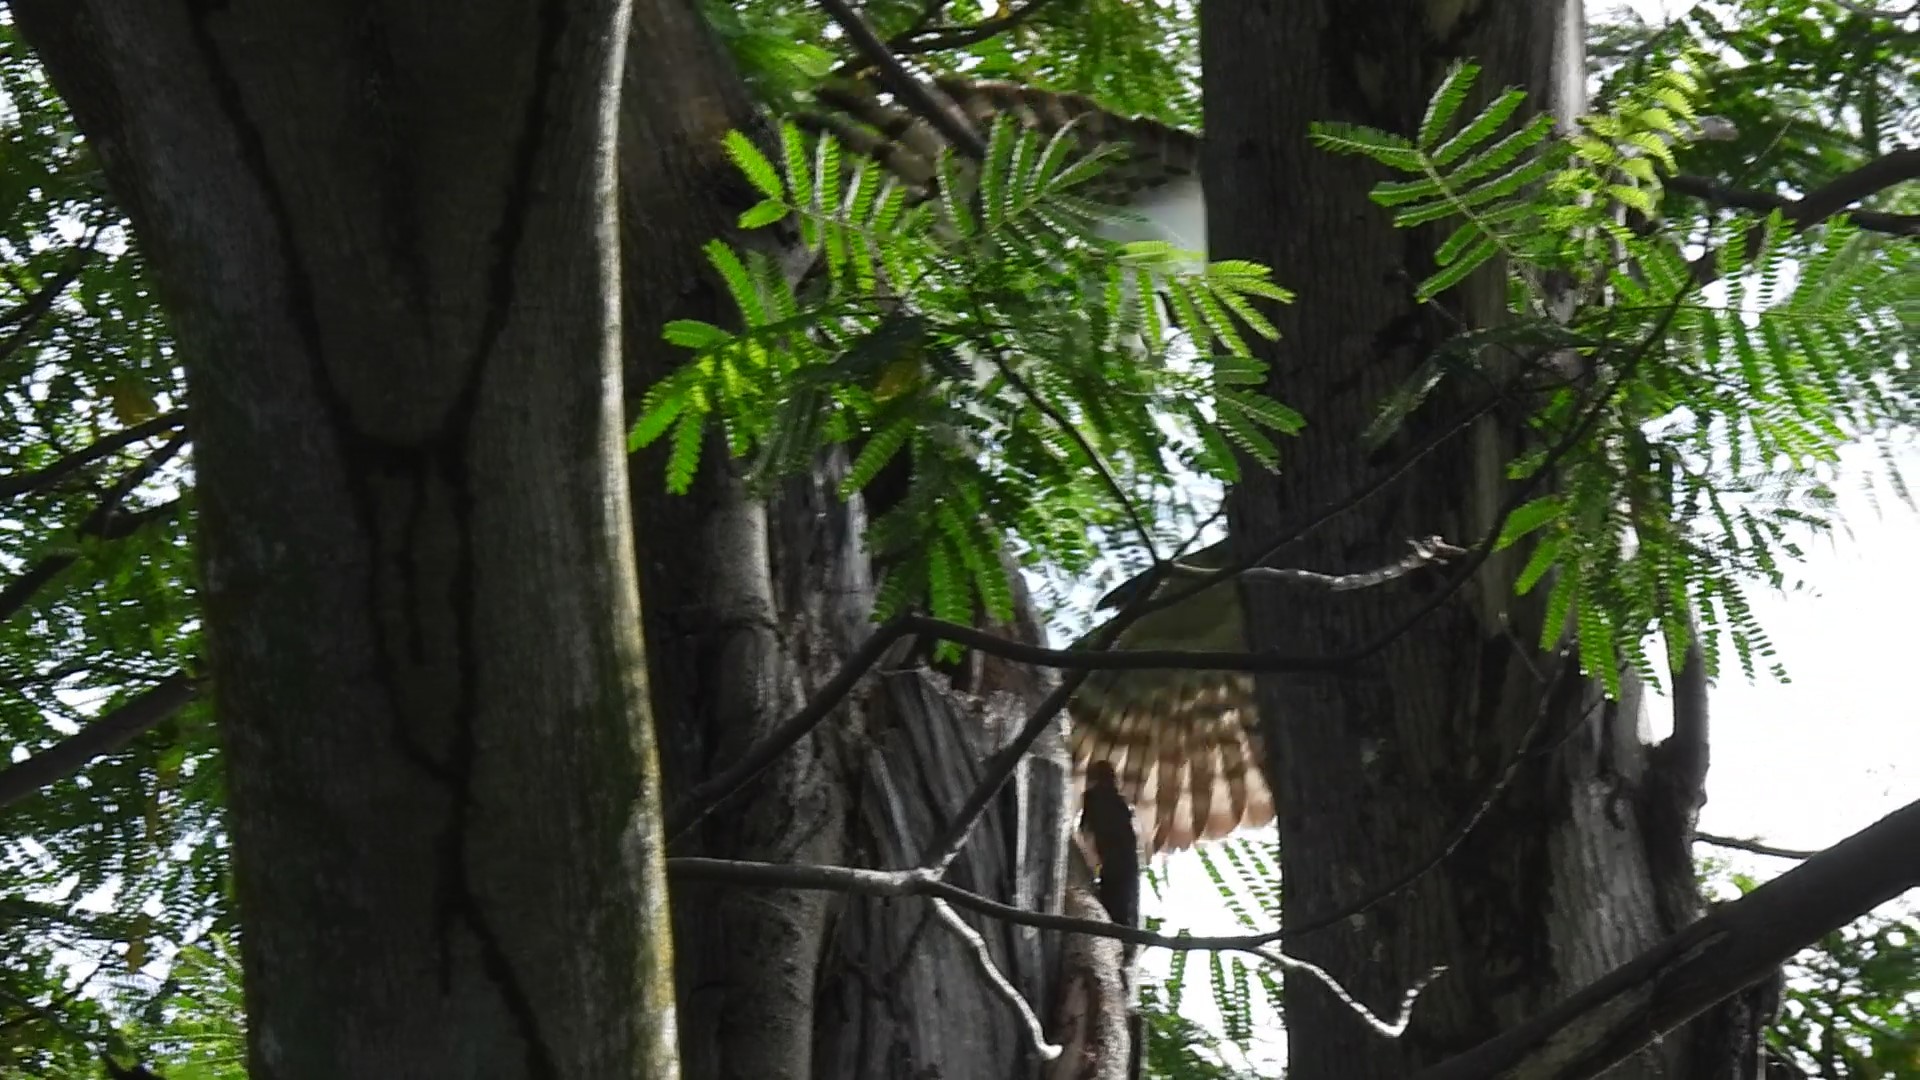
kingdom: Animalia
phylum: Chordata
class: Aves
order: Psittaciformes
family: Psittacidae
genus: Cacatua
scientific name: Cacatua goffiniana
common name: Tanimbar corella
